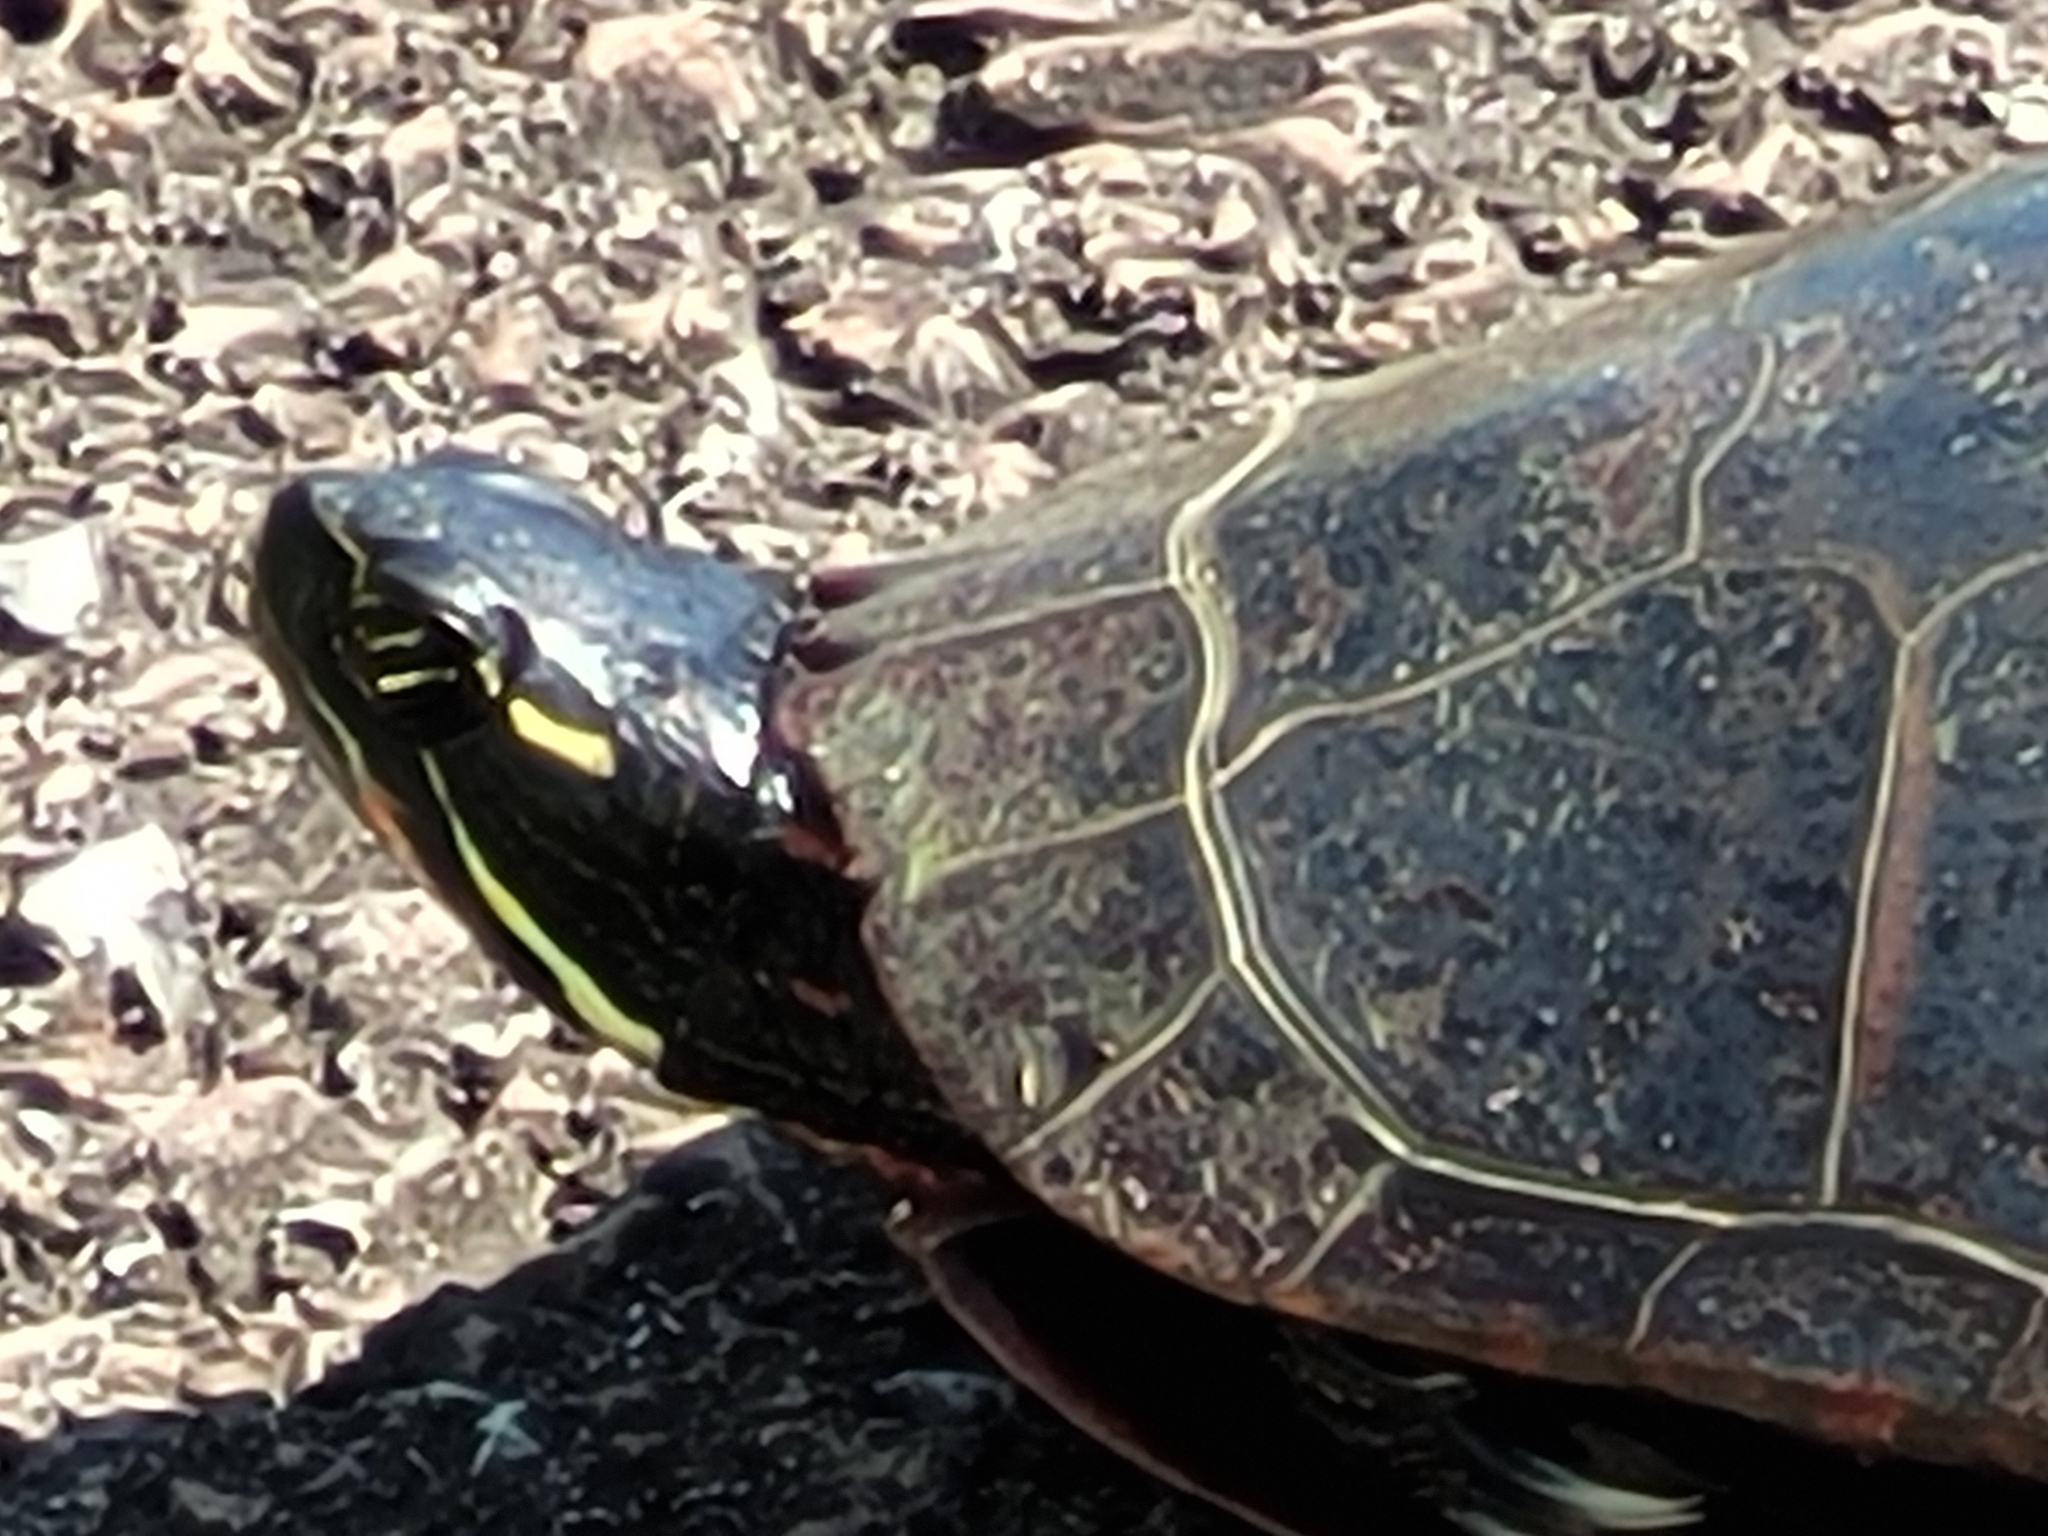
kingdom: Animalia
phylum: Chordata
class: Testudines
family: Emydidae
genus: Chrysemys
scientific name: Chrysemys picta
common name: Painted turtle
